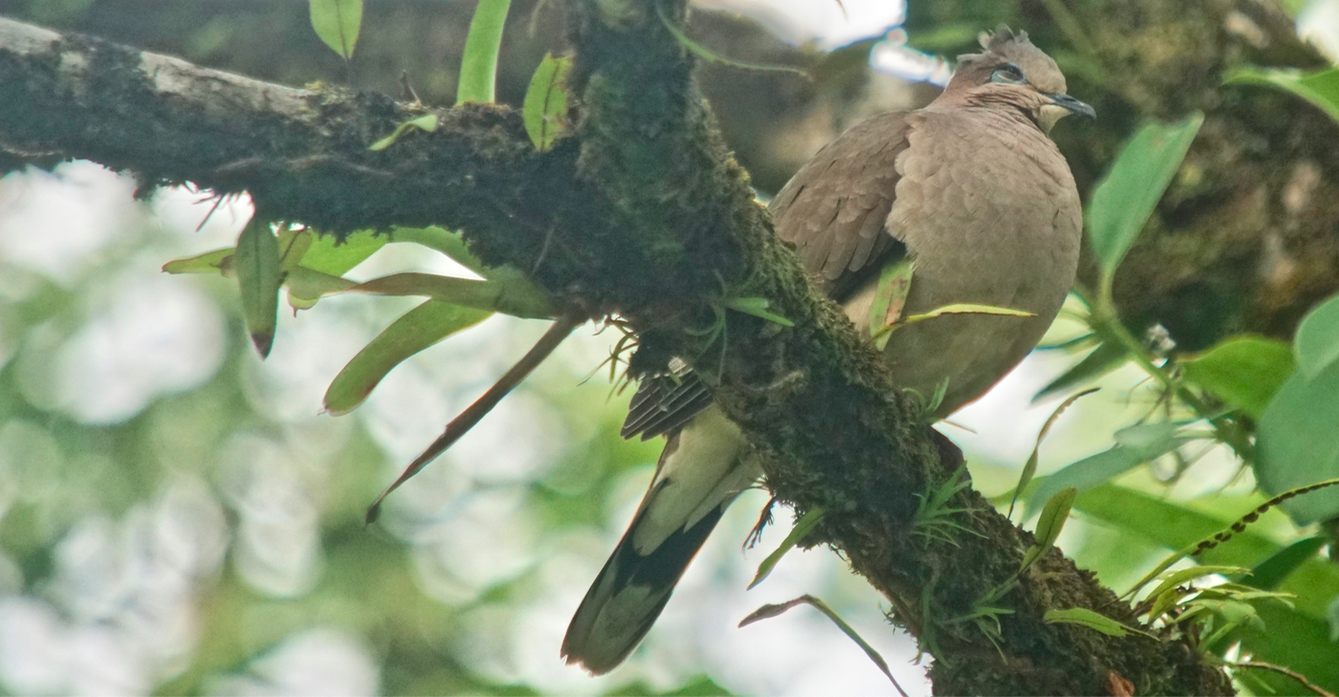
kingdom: Animalia
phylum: Chordata
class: Aves
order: Columbiformes
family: Columbidae
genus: Leptotila
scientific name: Leptotila verreauxi
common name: White-tipped dove
